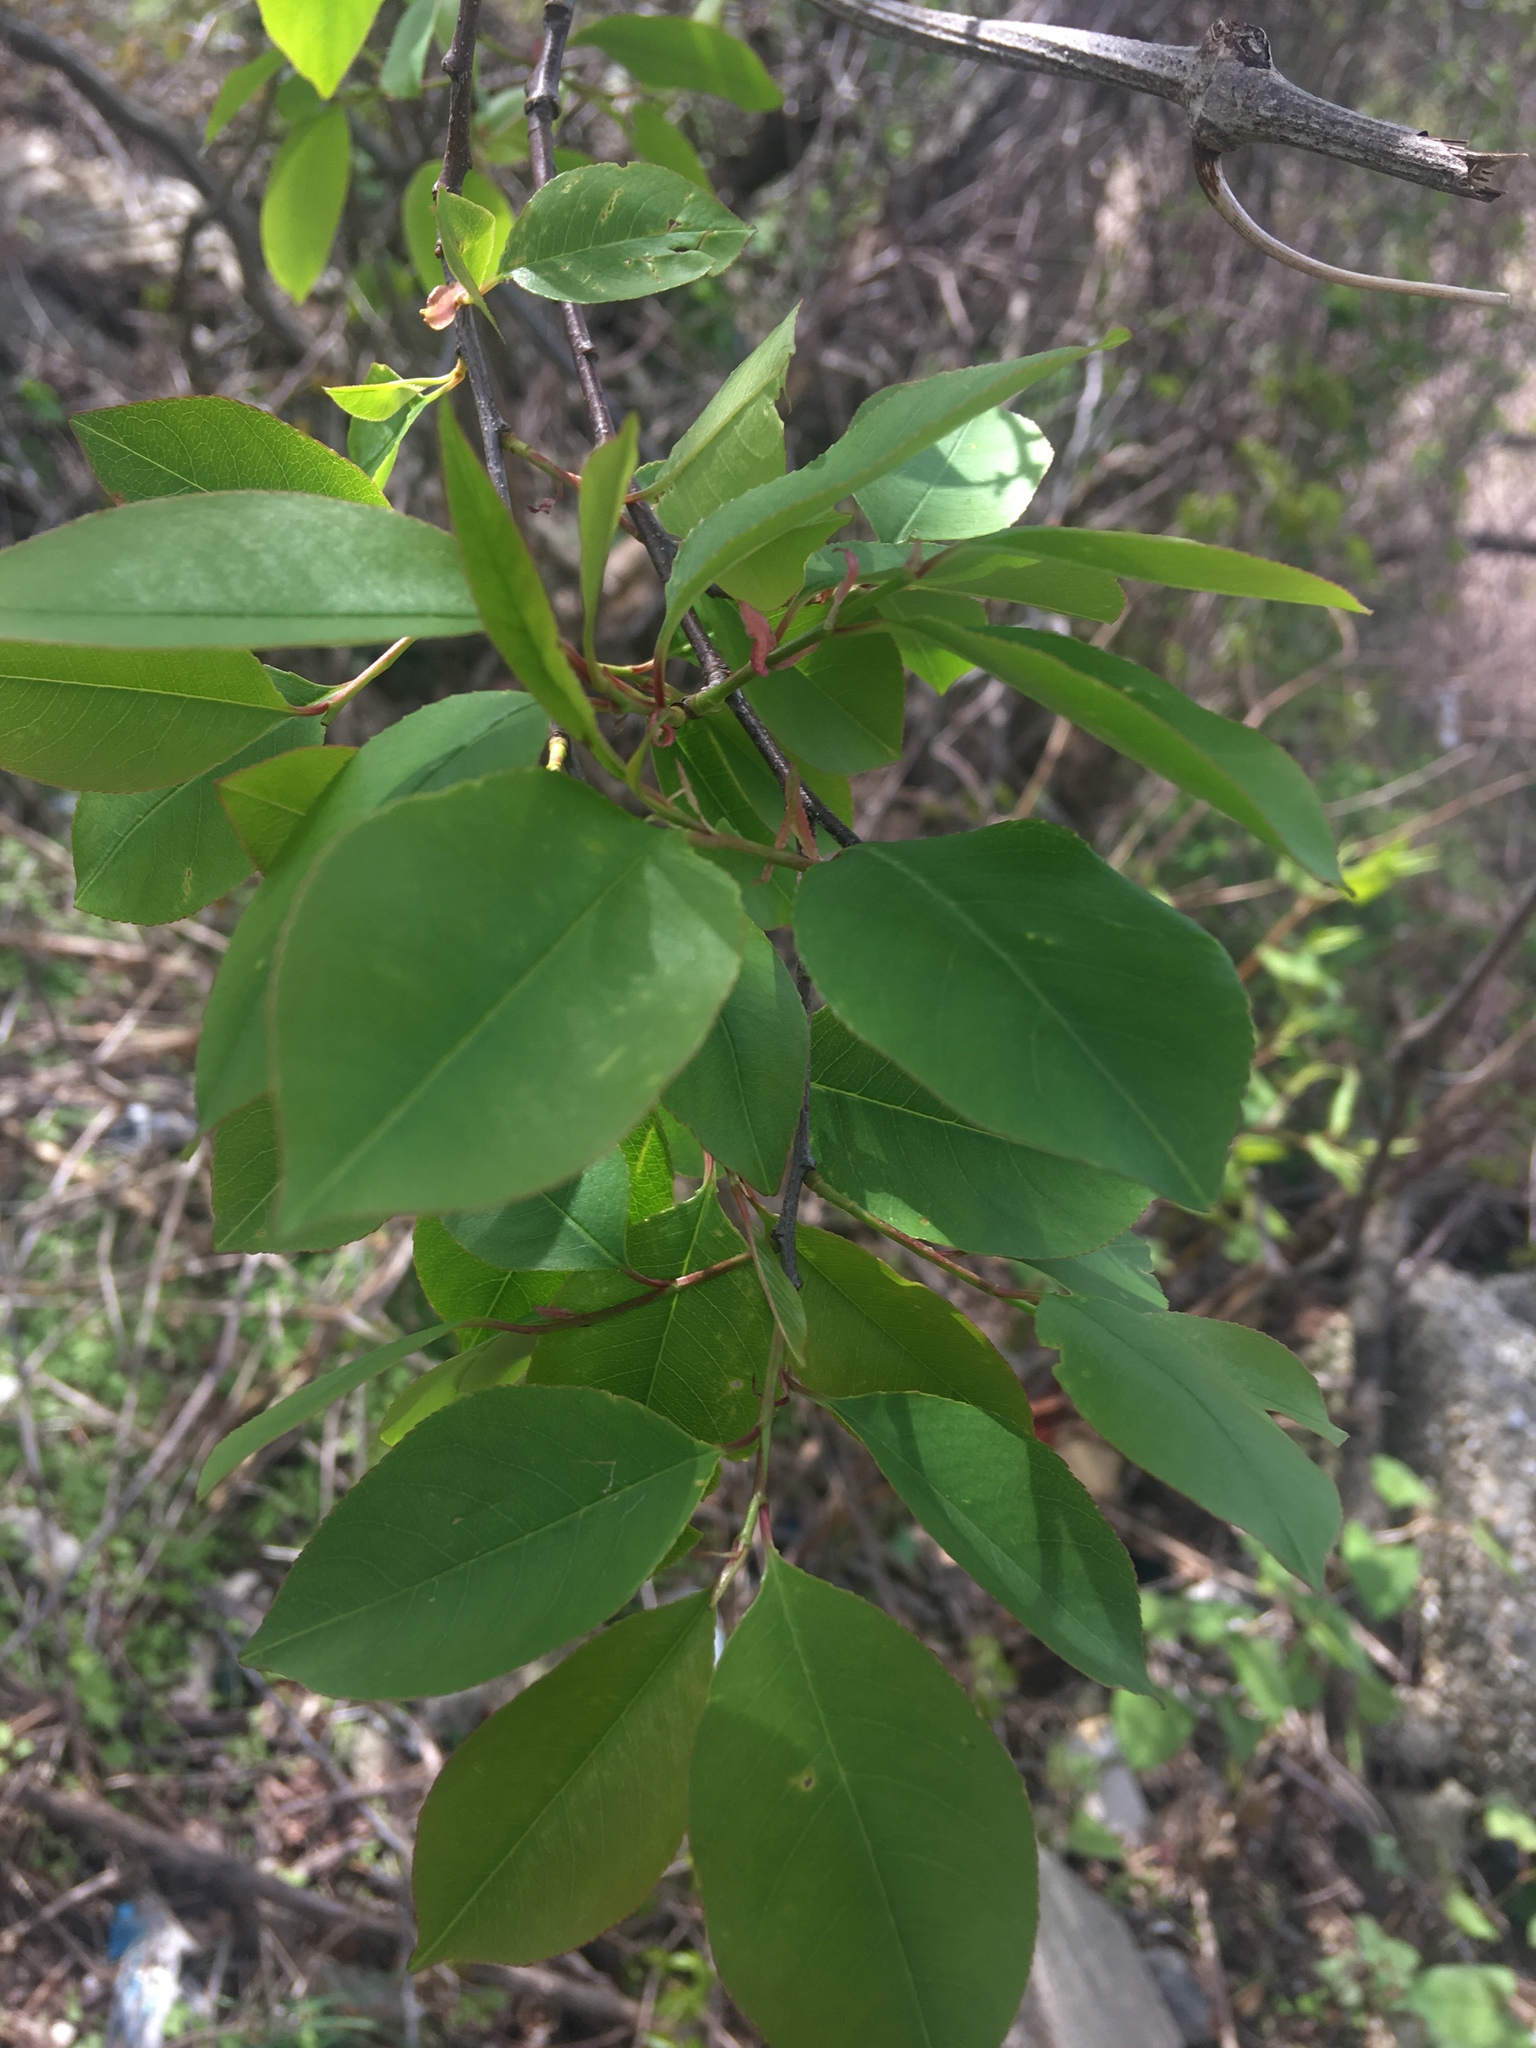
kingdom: Plantae
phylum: Tracheophyta
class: Magnoliopsida
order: Rosales
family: Rosaceae
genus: Prunus
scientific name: Prunus serotina
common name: Black cherry
